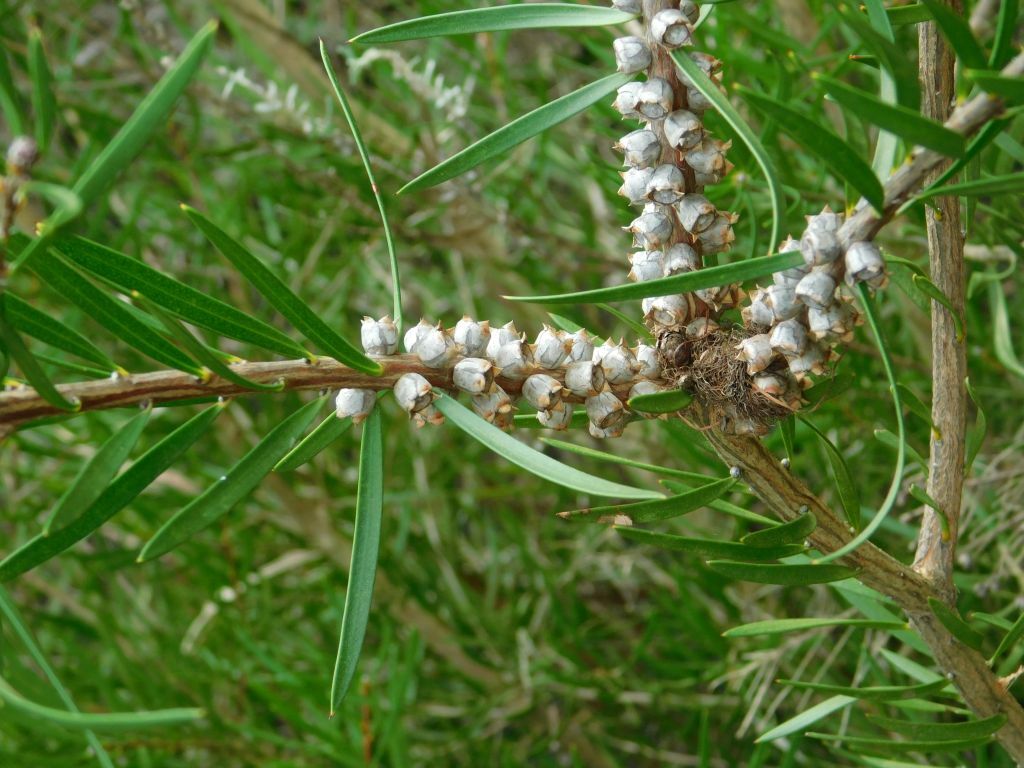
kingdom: Plantae
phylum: Tracheophyta
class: Magnoliopsida
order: Myrtales
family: Myrtaceae
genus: Callistemon
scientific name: Callistemon linearis
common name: Narrow-leaf bottlebrush
